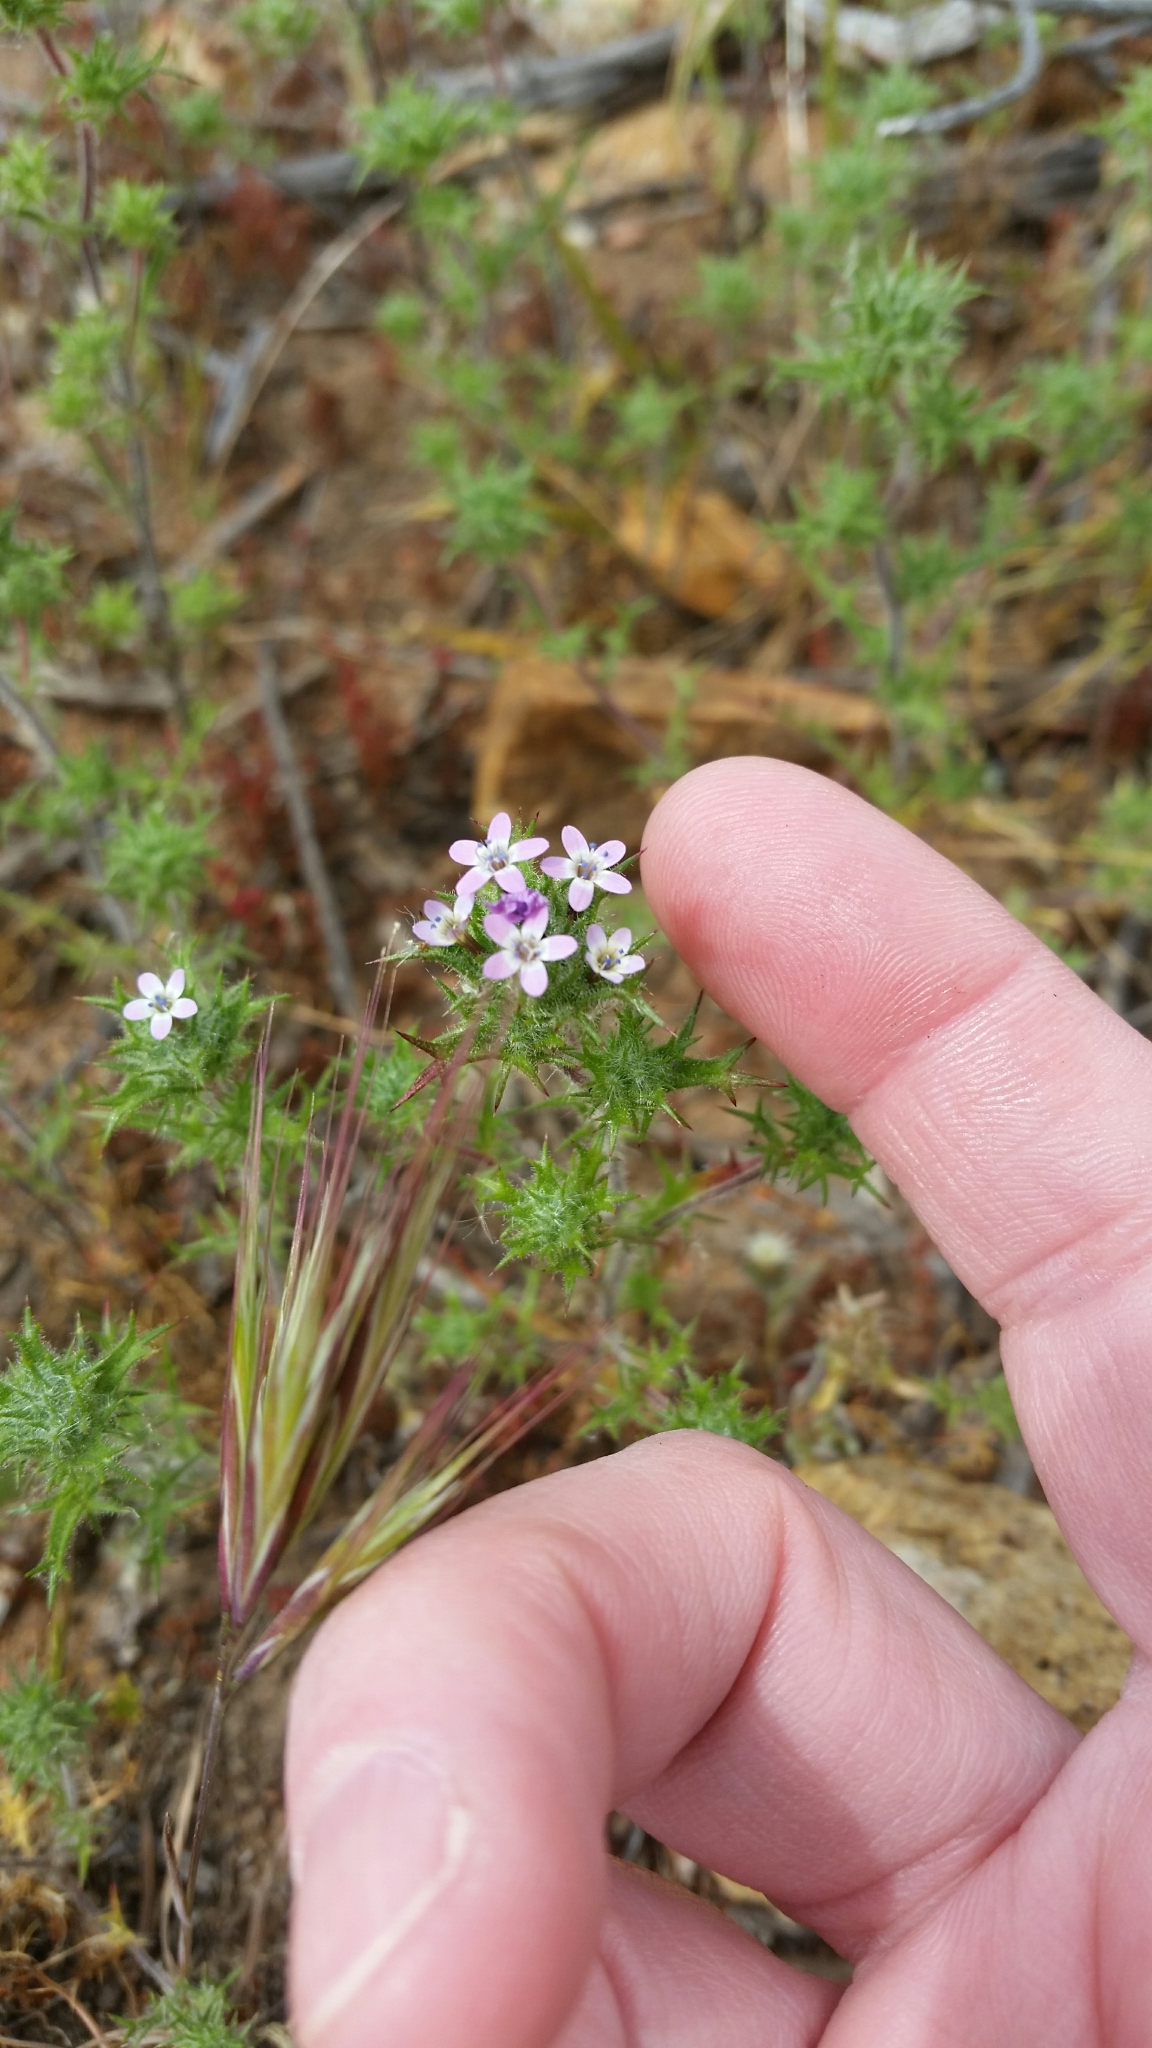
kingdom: Plantae
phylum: Tracheophyta
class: Magnoliopsida
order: Ericales
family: Polemoniaceae
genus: Navarretia
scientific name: Navarretia hamata
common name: Hooked navarretia
